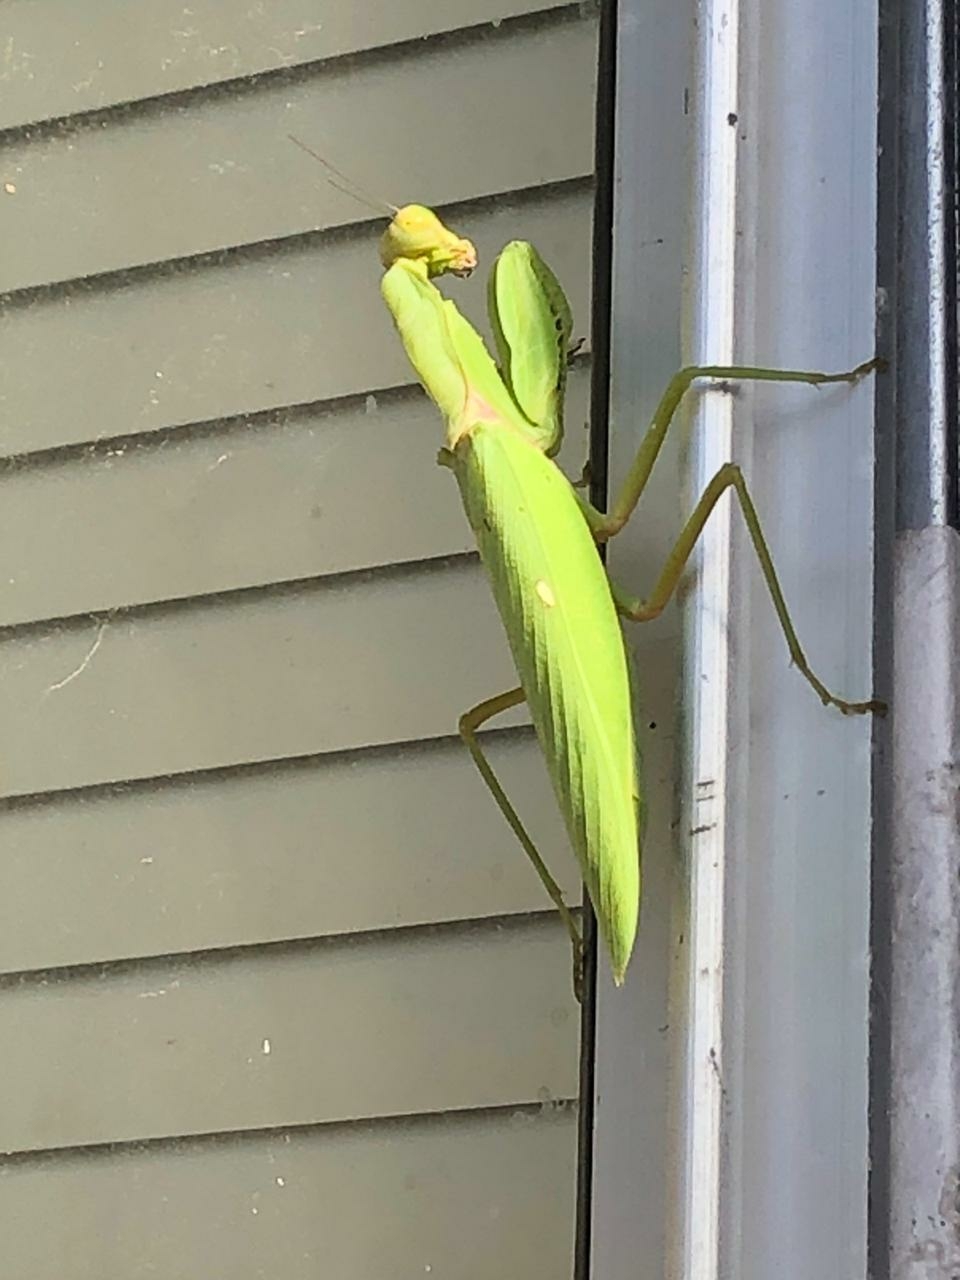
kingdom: Animalia
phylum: Arthropoda
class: Insecta
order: Mantodea
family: Mantidae
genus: Hierodula
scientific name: Hierodula patellifera
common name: Asian mantis
